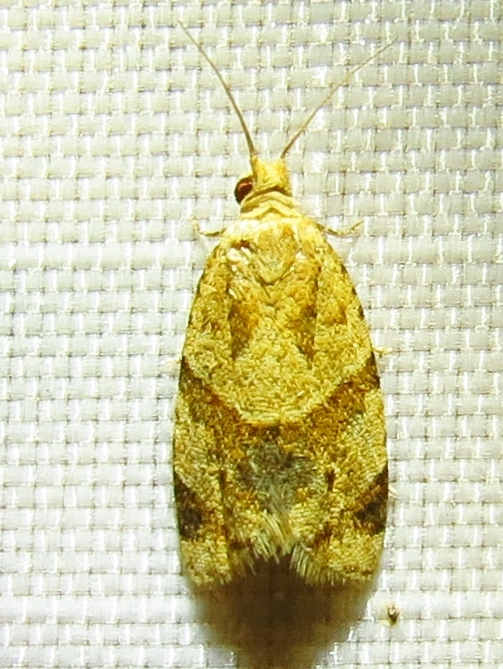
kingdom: Animalia
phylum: Arthropoda
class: Insecta
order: Lepidoptera
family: Tortricidae
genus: Clepsis
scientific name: Clepsis peritana
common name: Garden tortrix
